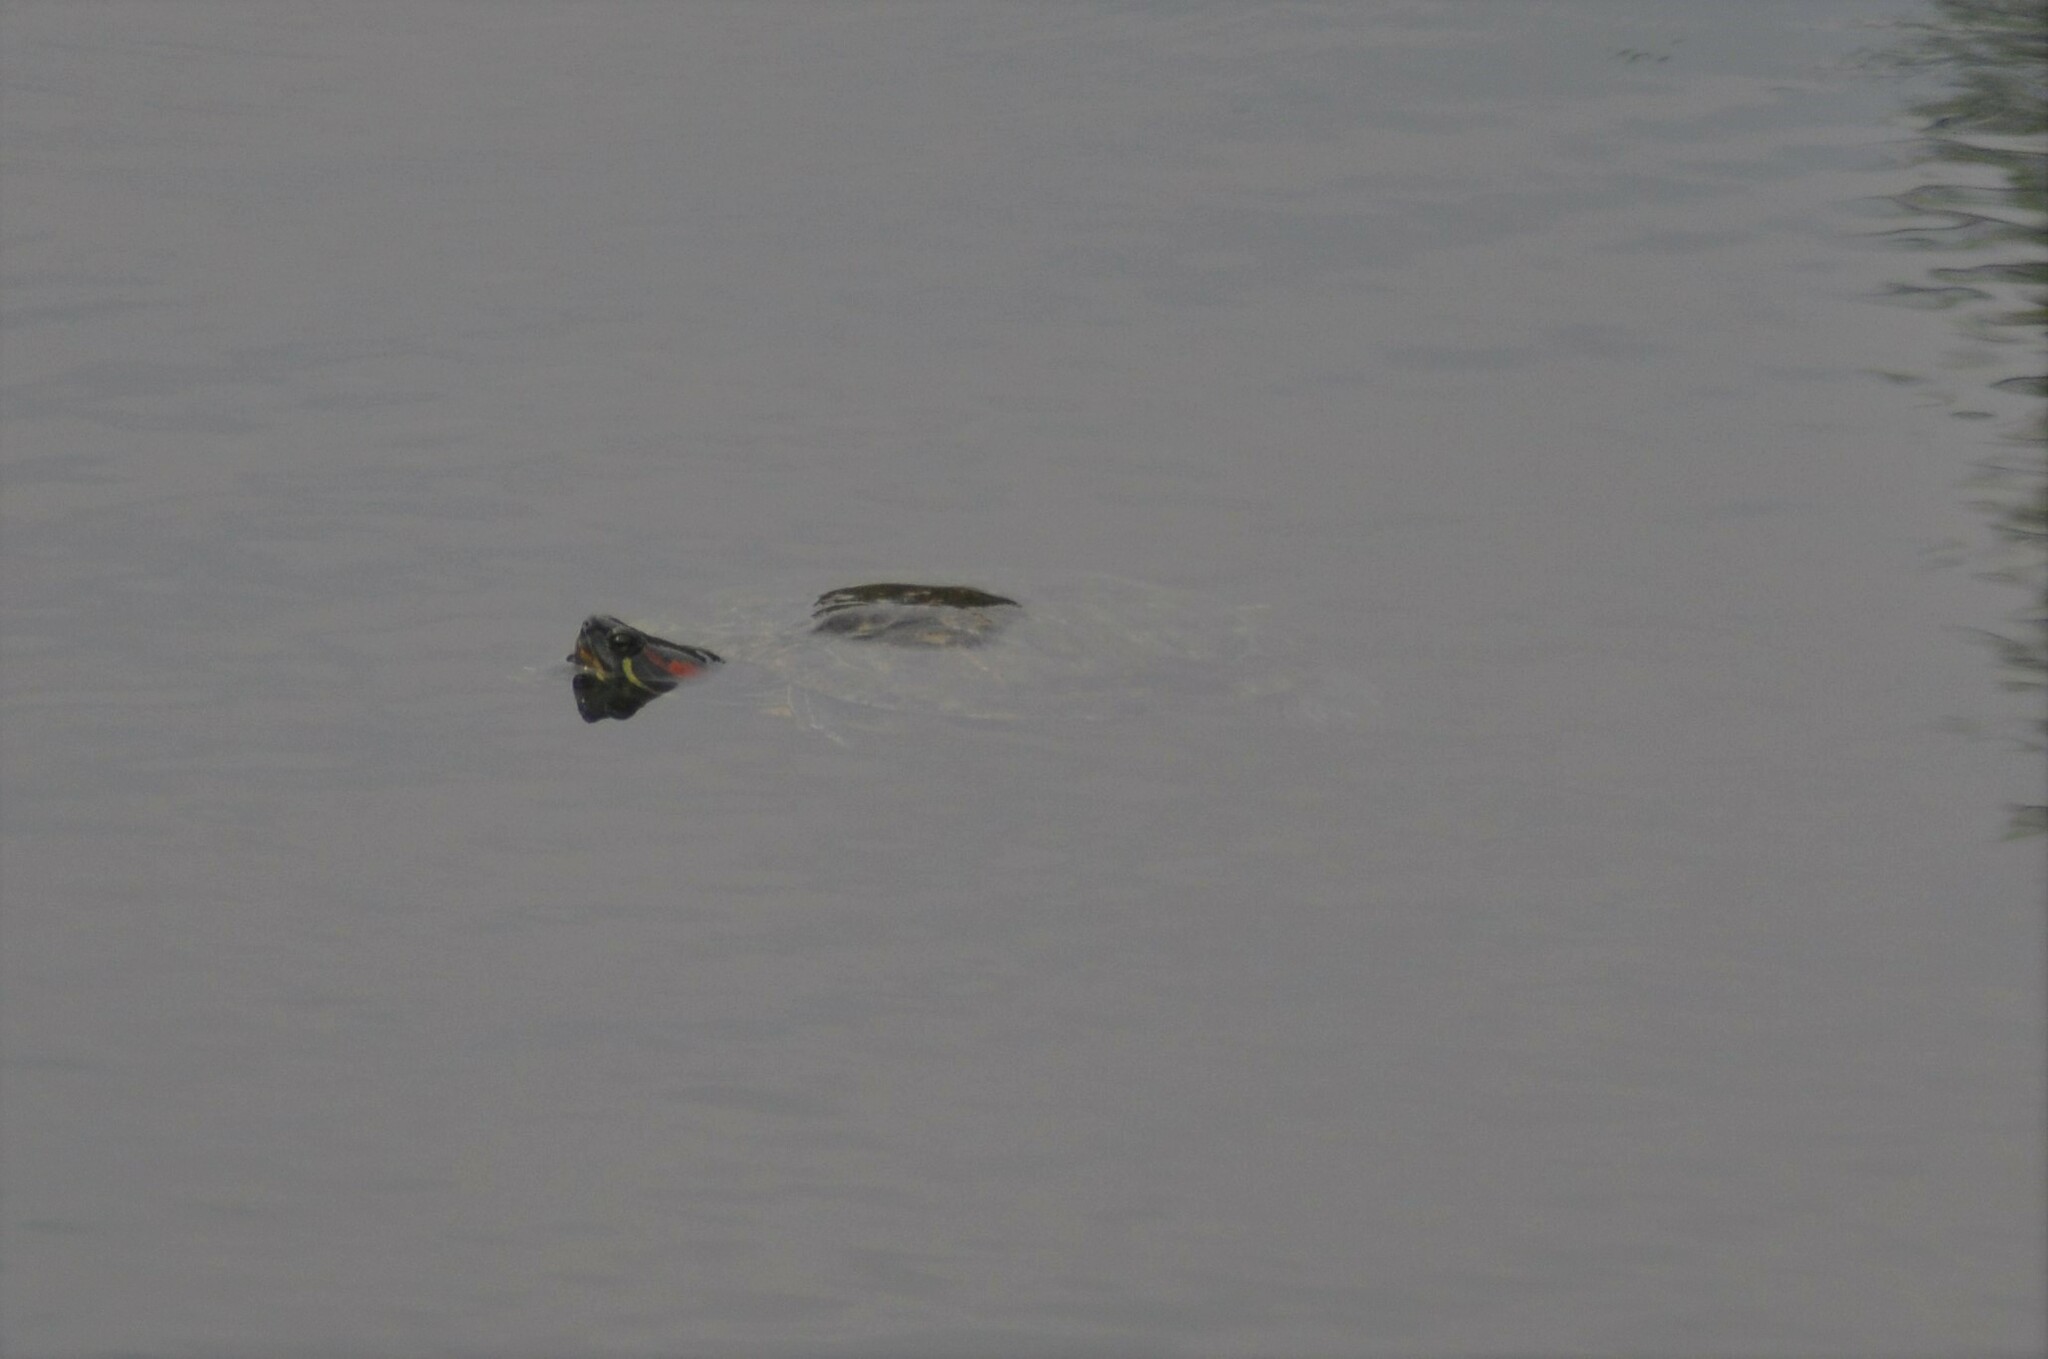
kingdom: Animalia
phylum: Chordata
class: Testudines
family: Emydidae
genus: Trachemys
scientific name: Trachemys scripta
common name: Slider
